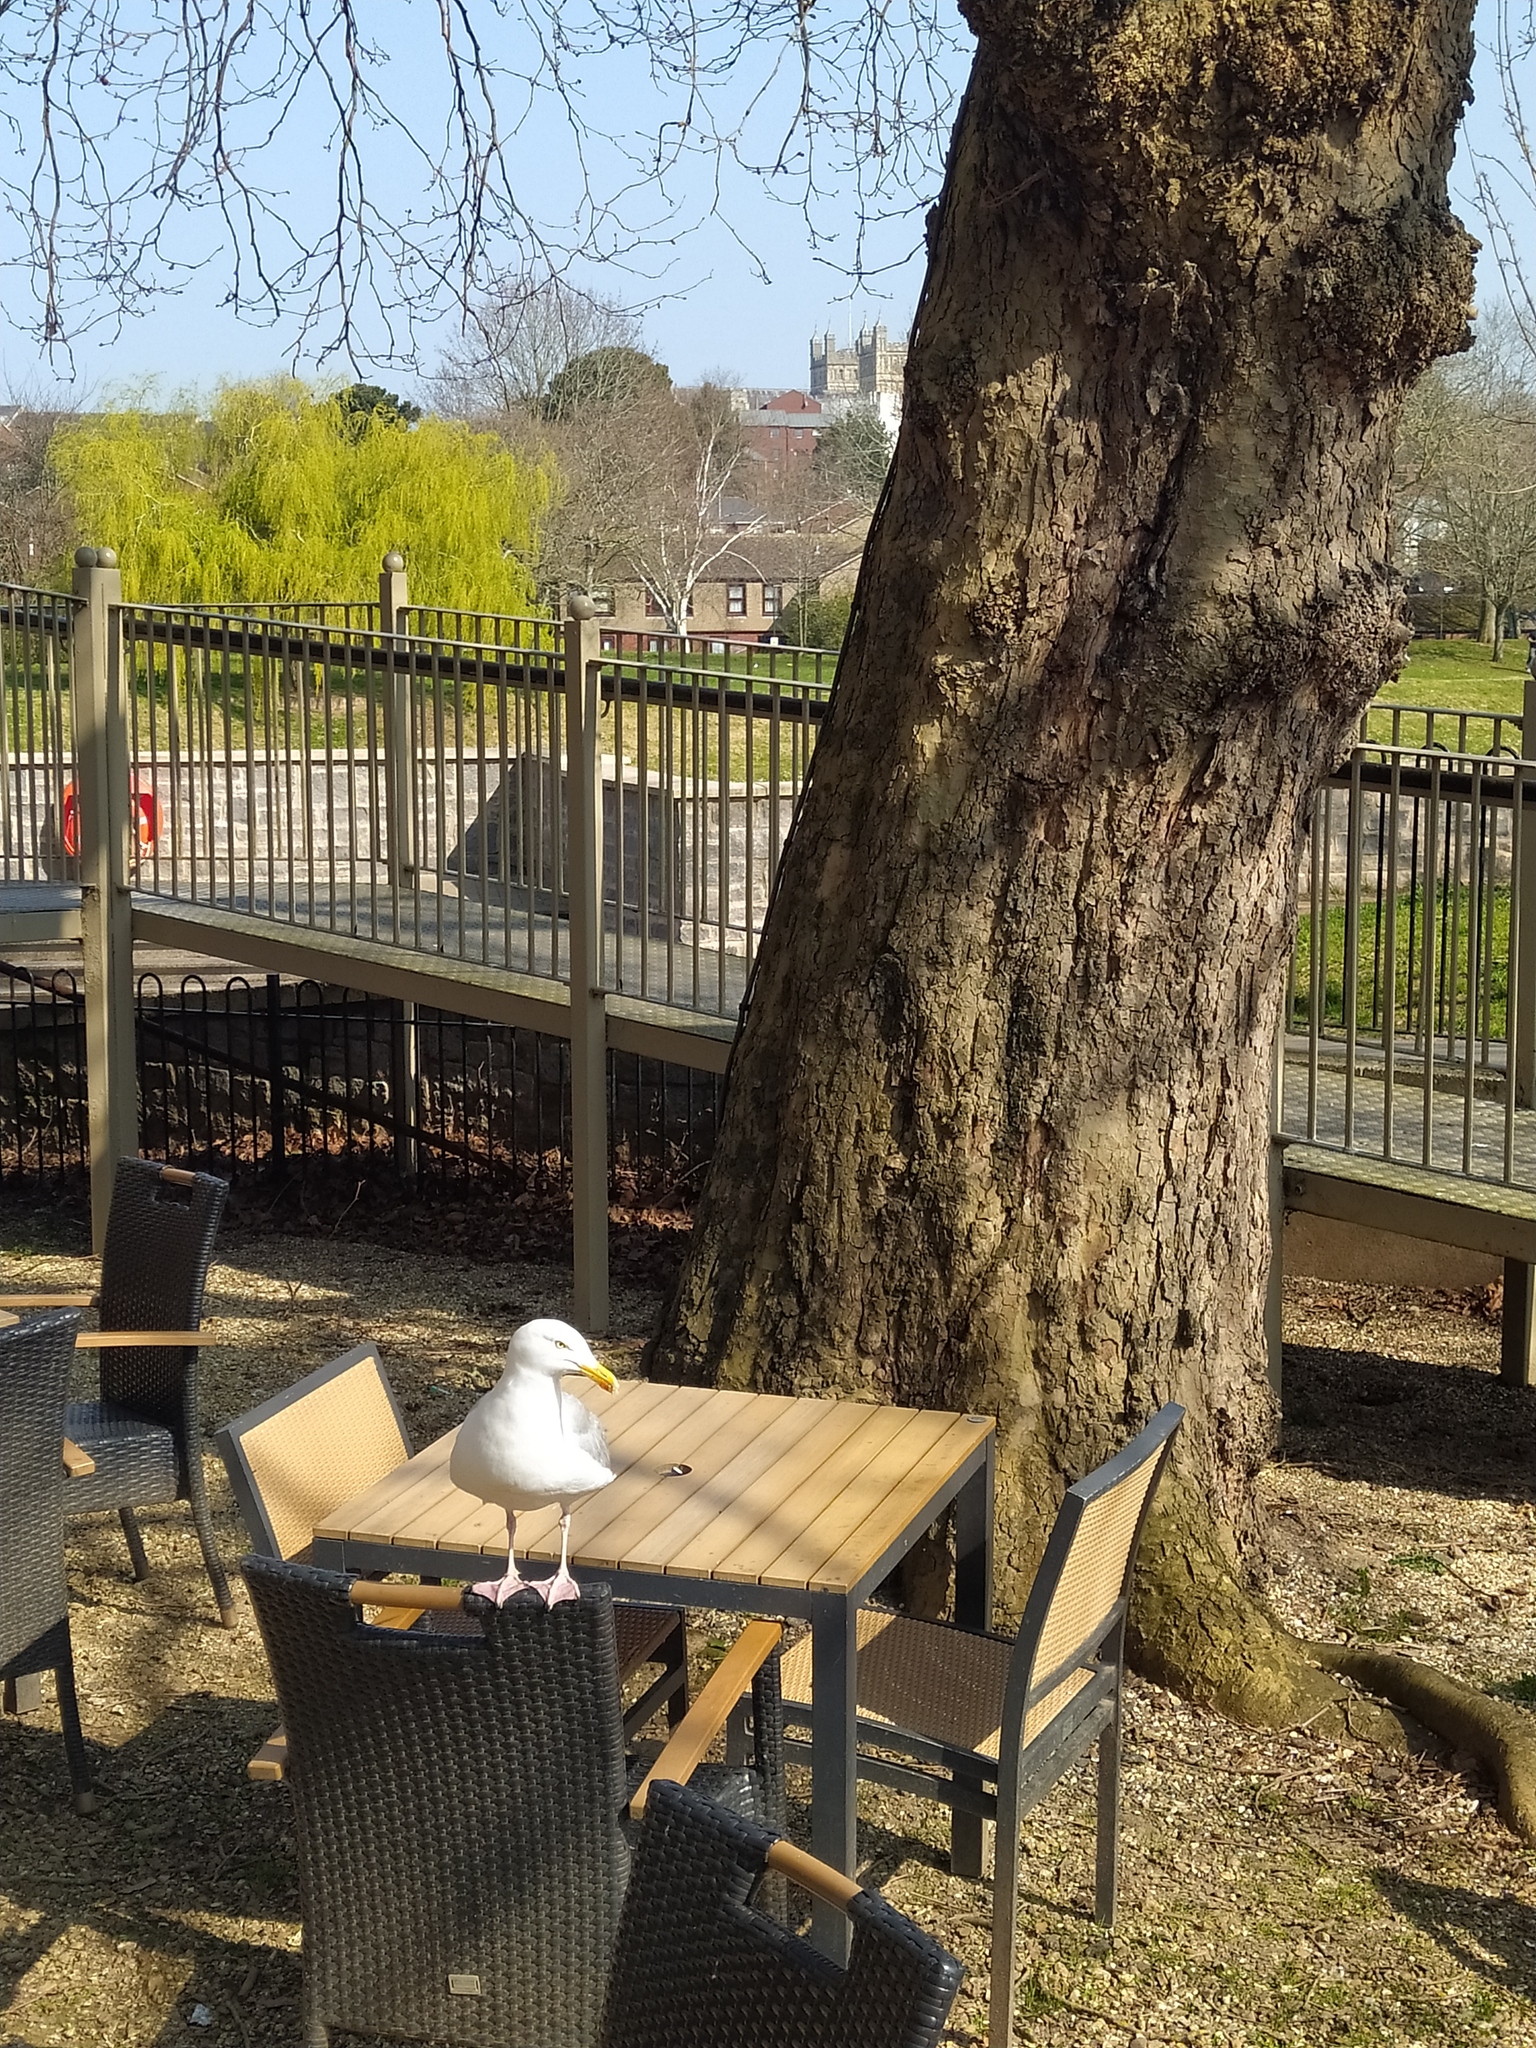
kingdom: Animalia
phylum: Chordata
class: Aves
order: Charadriiformes
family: Laridae
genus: Larus
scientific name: Larus argentatus
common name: Herring gull
